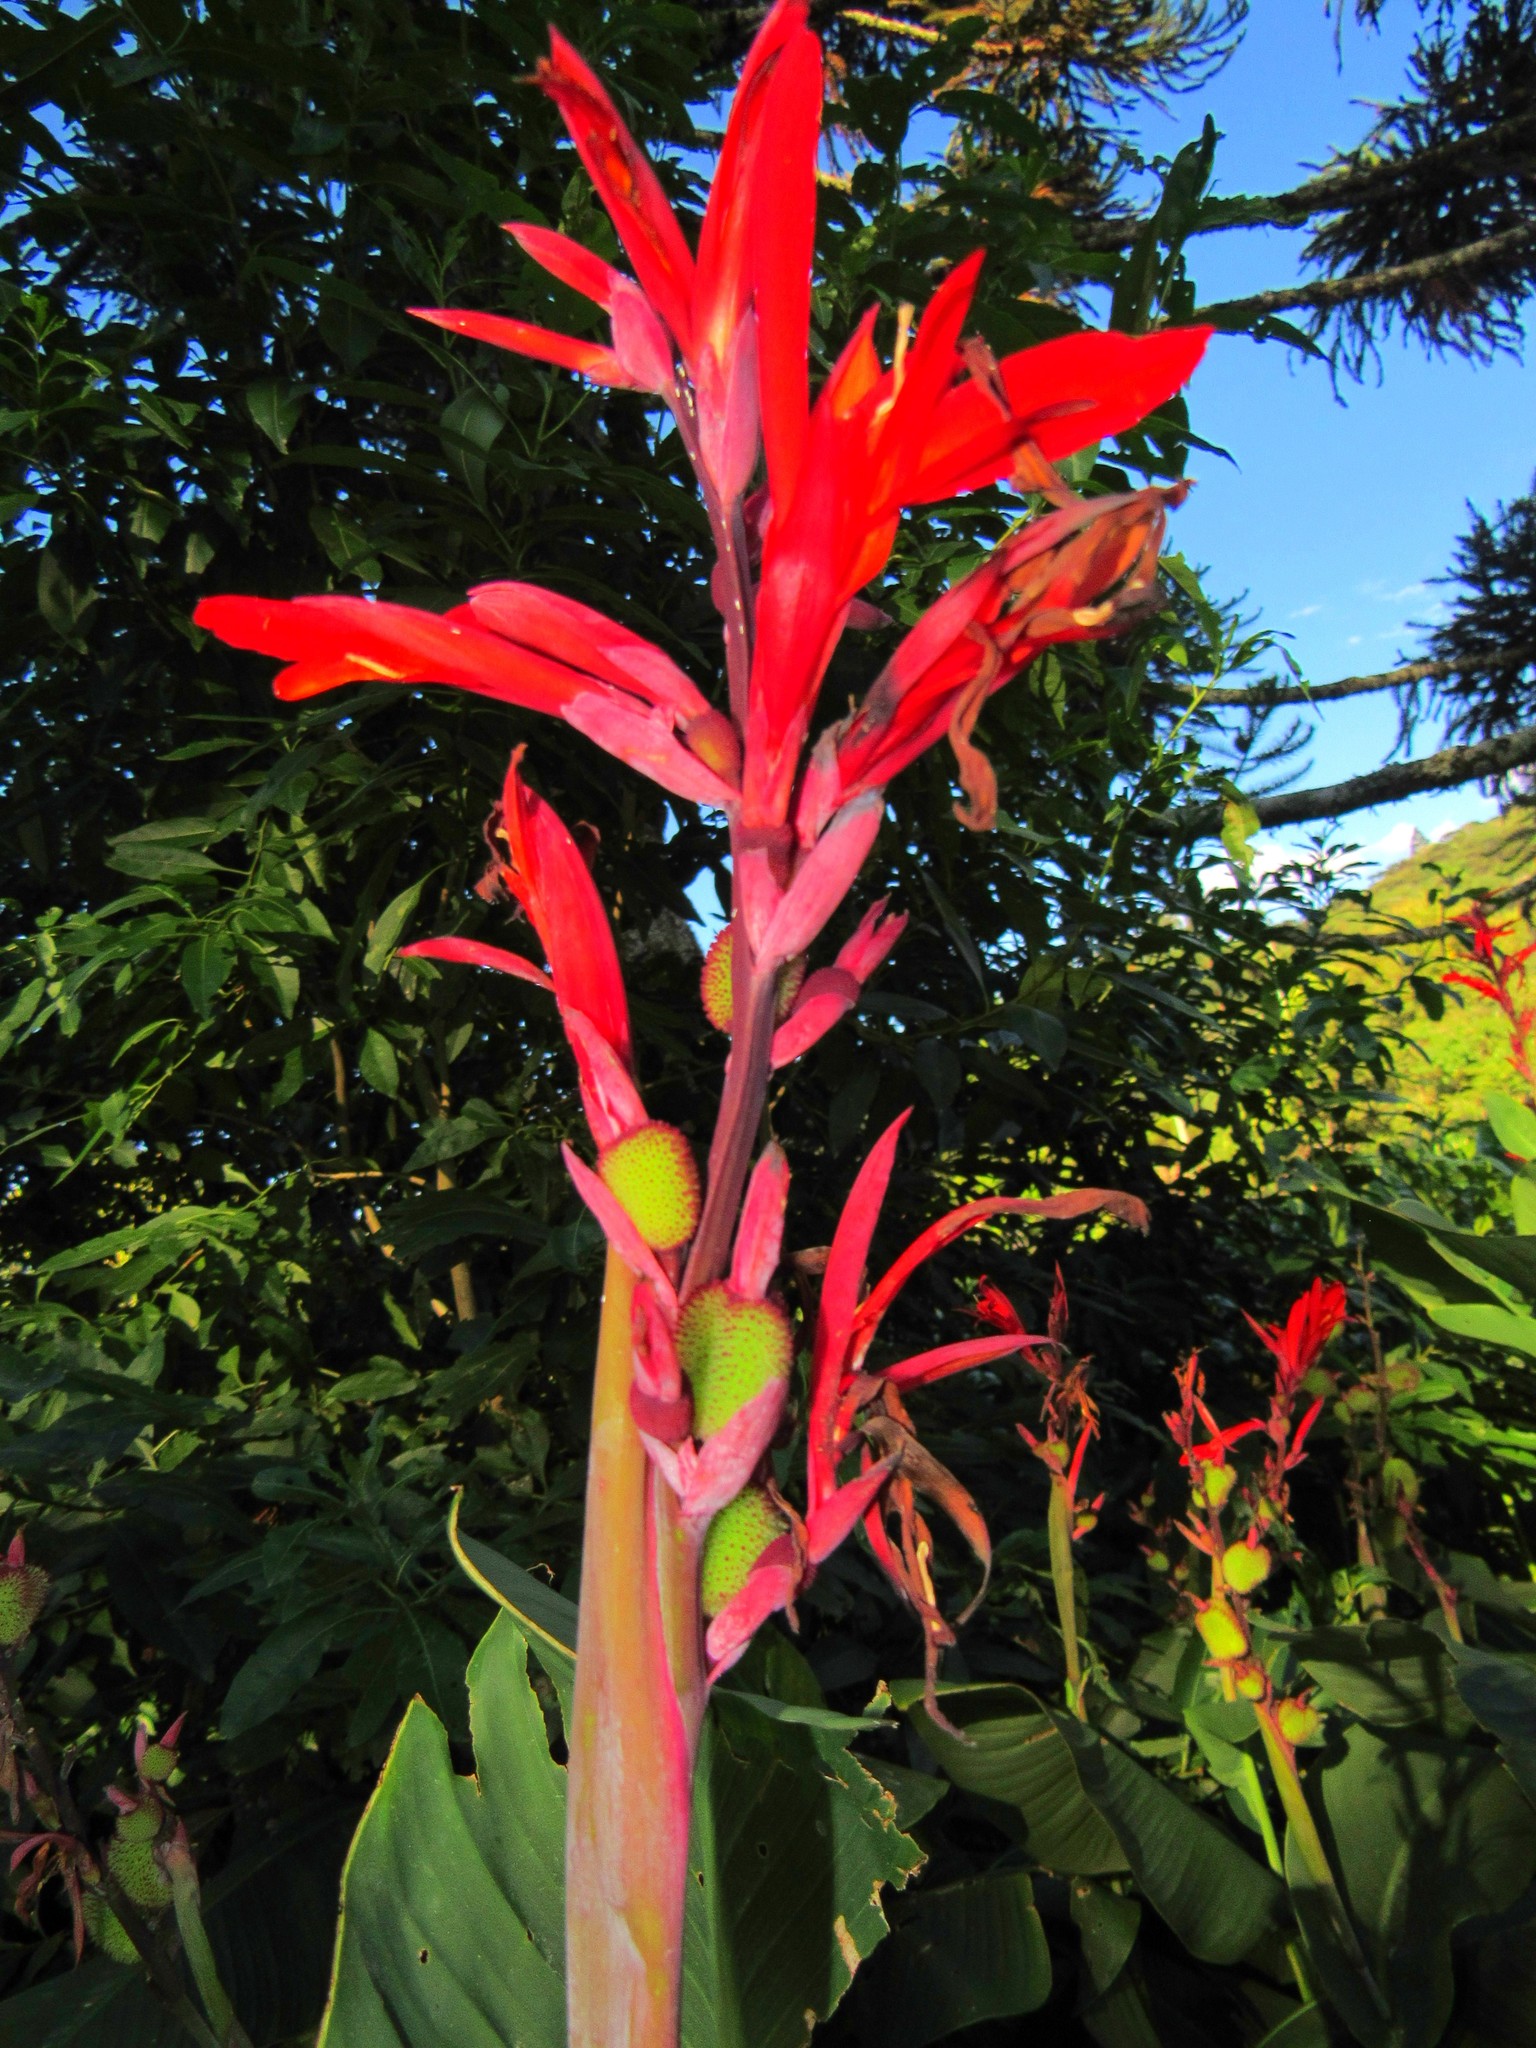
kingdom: Plantae
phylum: Tracheophyta
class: Liliopsida
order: Zingiberales
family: Cannaceae
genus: Canna
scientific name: Canna indica
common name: Indian shot
